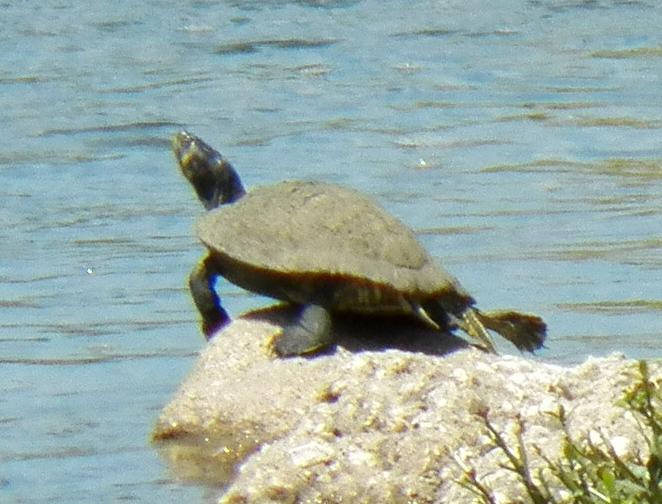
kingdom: Animalia
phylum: Chordata
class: Testudines
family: Emydidae
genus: Trachemys
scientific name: Trachemys scripta
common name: Slider
